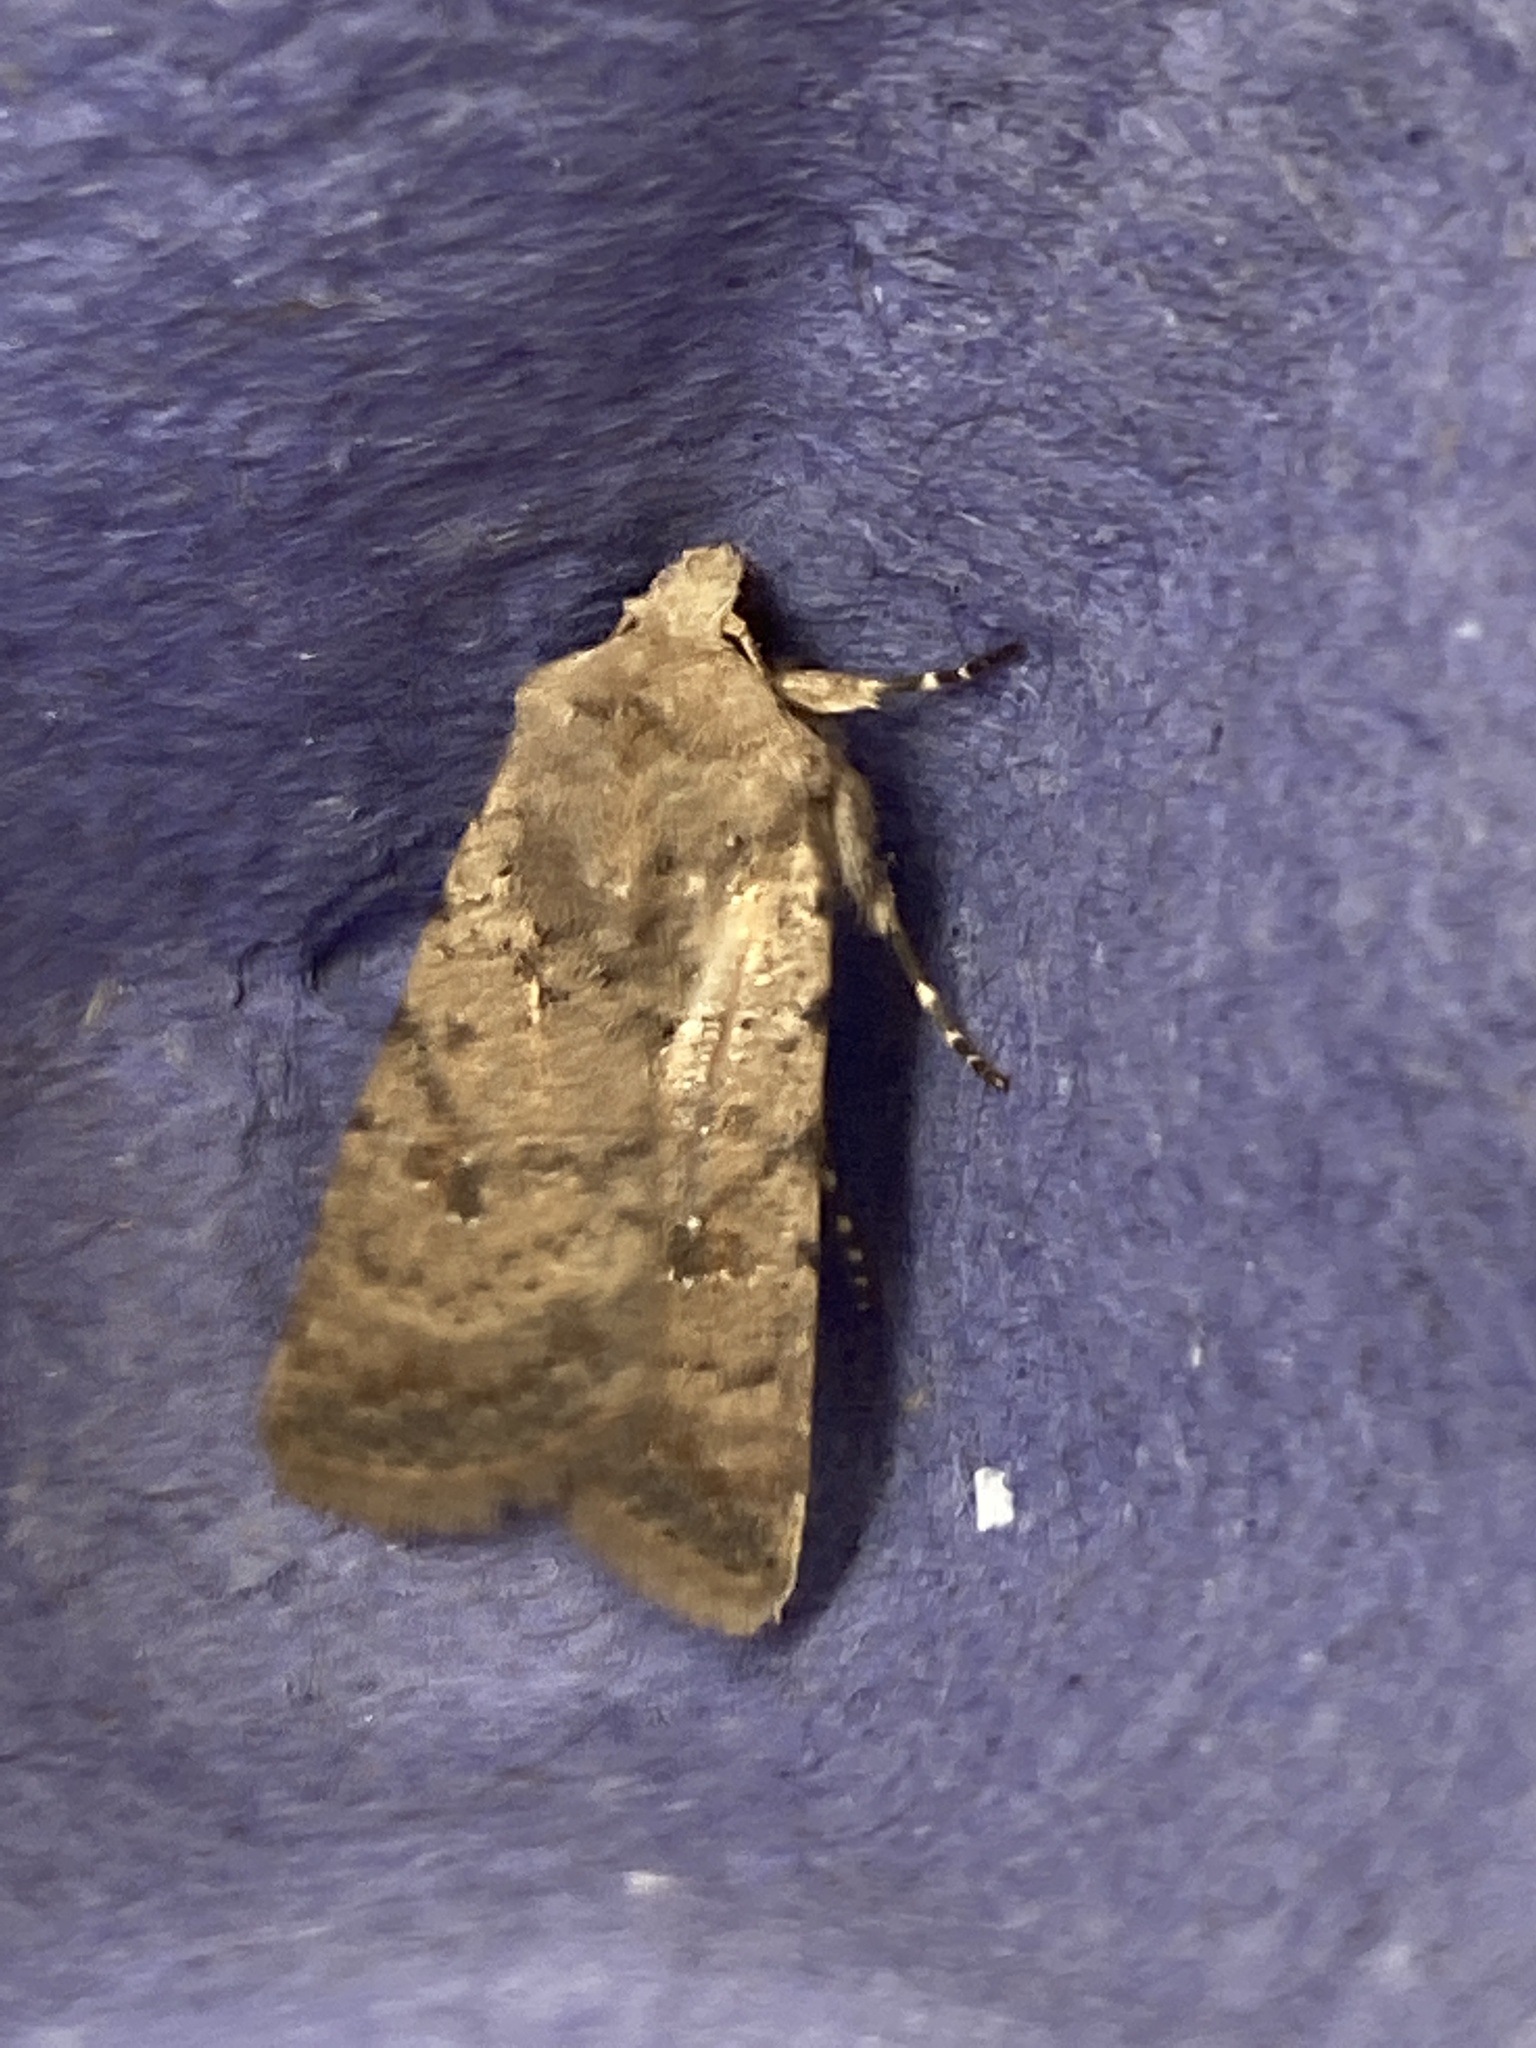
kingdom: Animalia
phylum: Arthropoda
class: Insecta
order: Lepidoptera
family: Noctuidae
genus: Caradrina
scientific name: Caradrina clavipalpis
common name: Pale mottled willow
